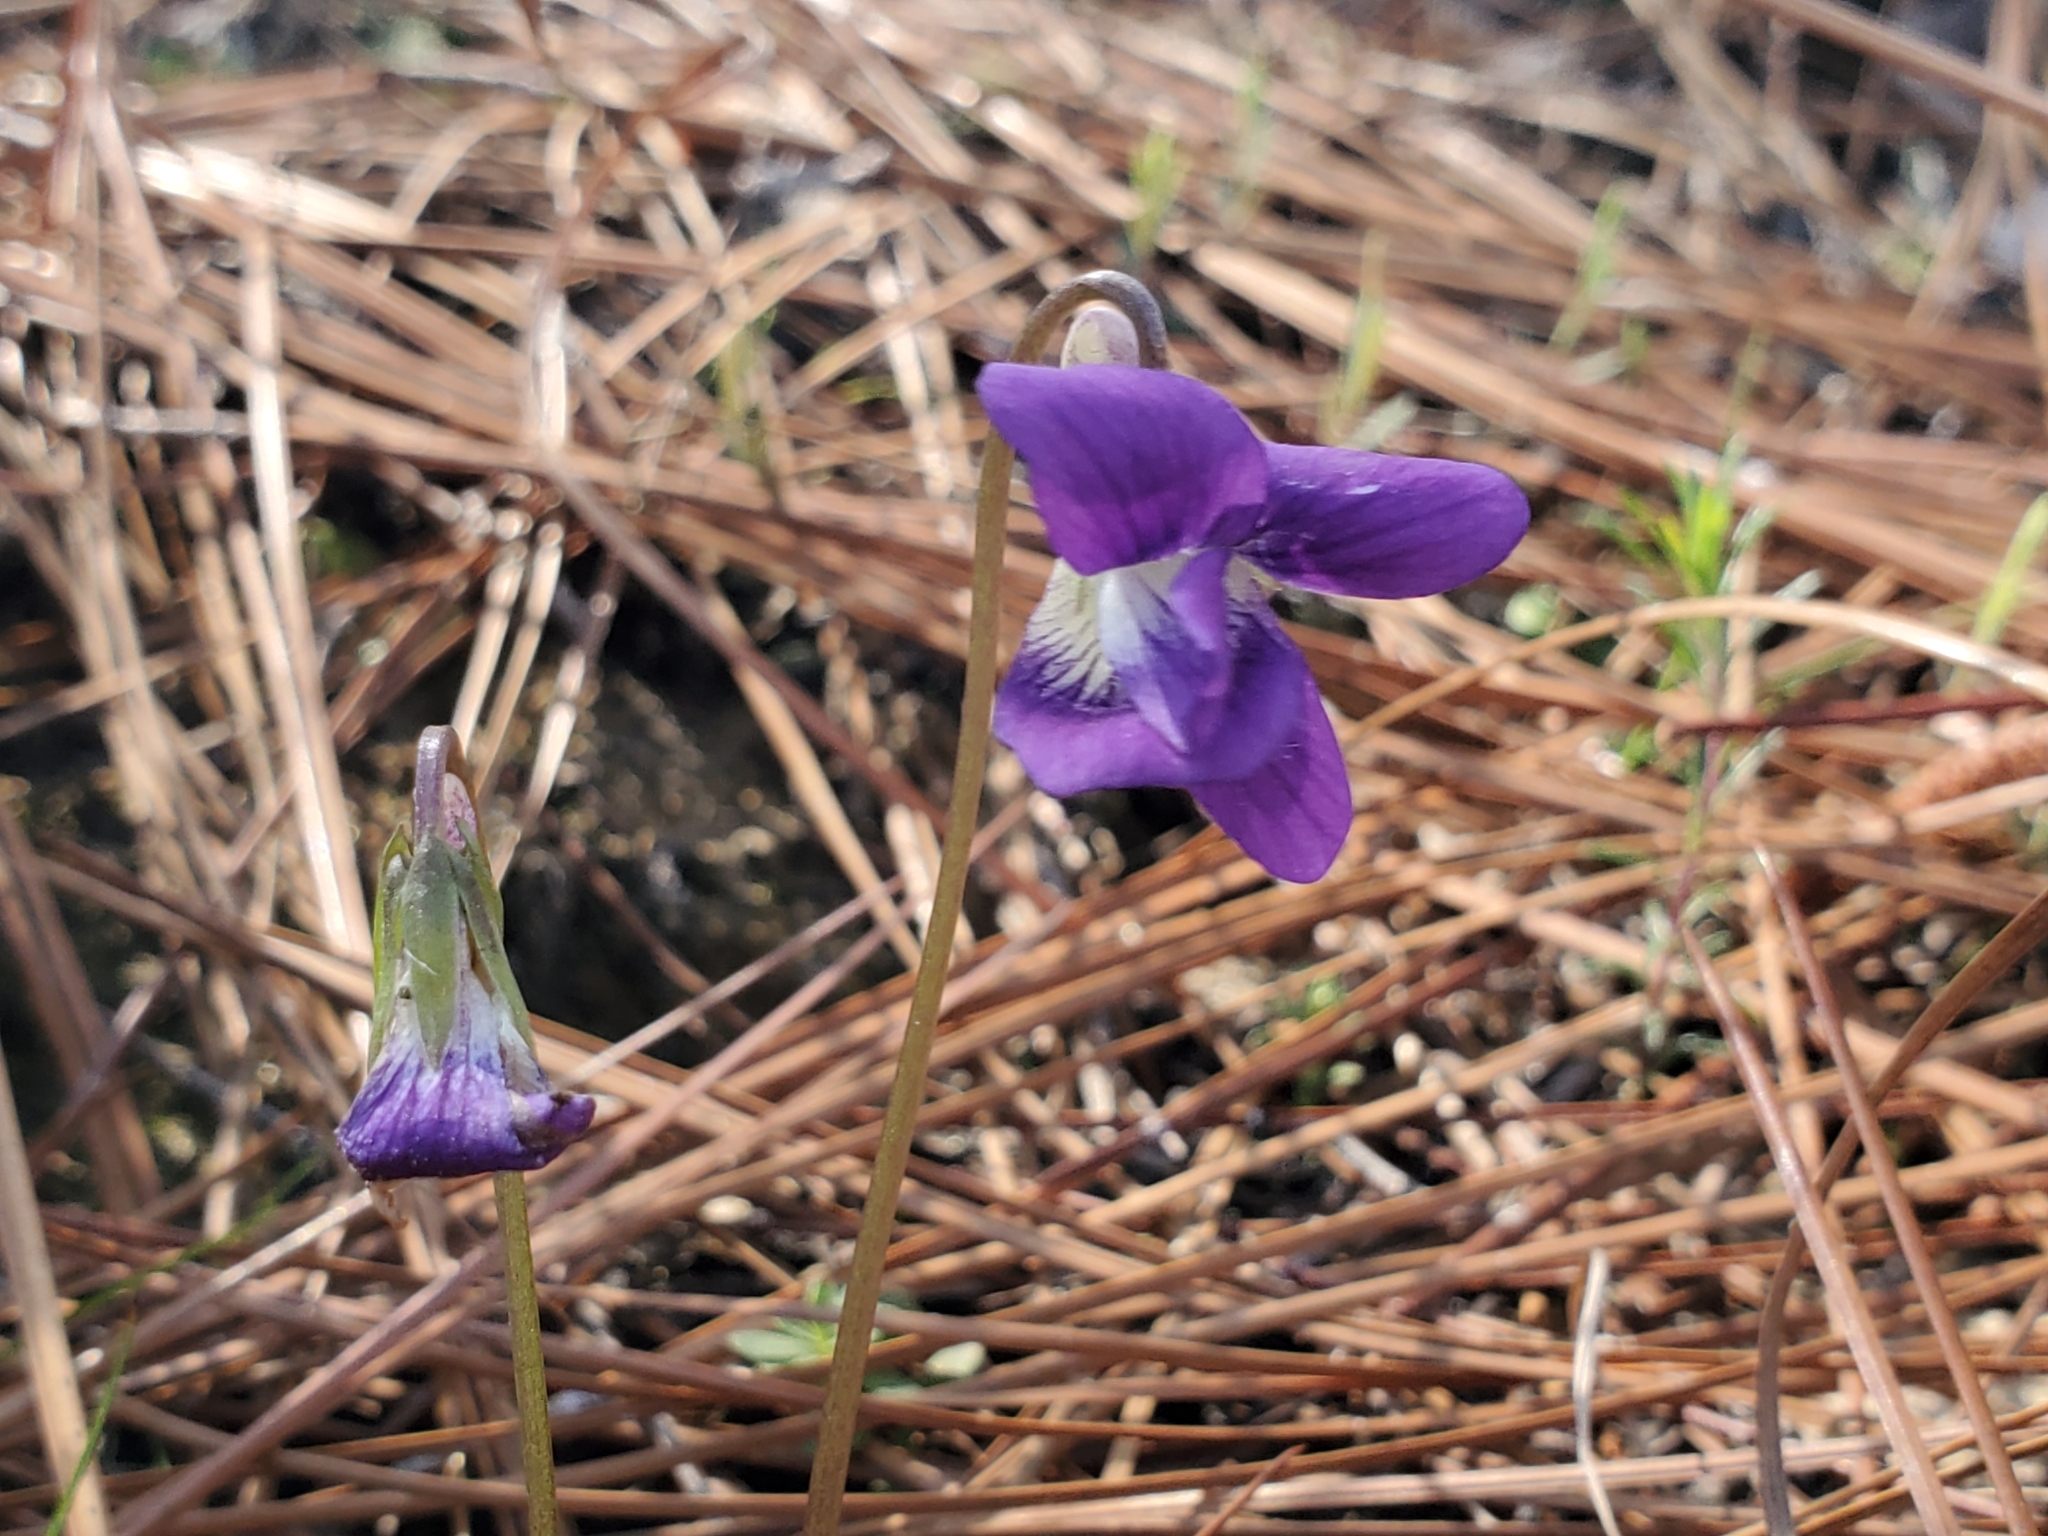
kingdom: Plantae
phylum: Tracheophyta
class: Magnoliopsida
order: Malpighiales
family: Violaceae
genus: Viola
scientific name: Viola septemloba
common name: Southern coast violet
